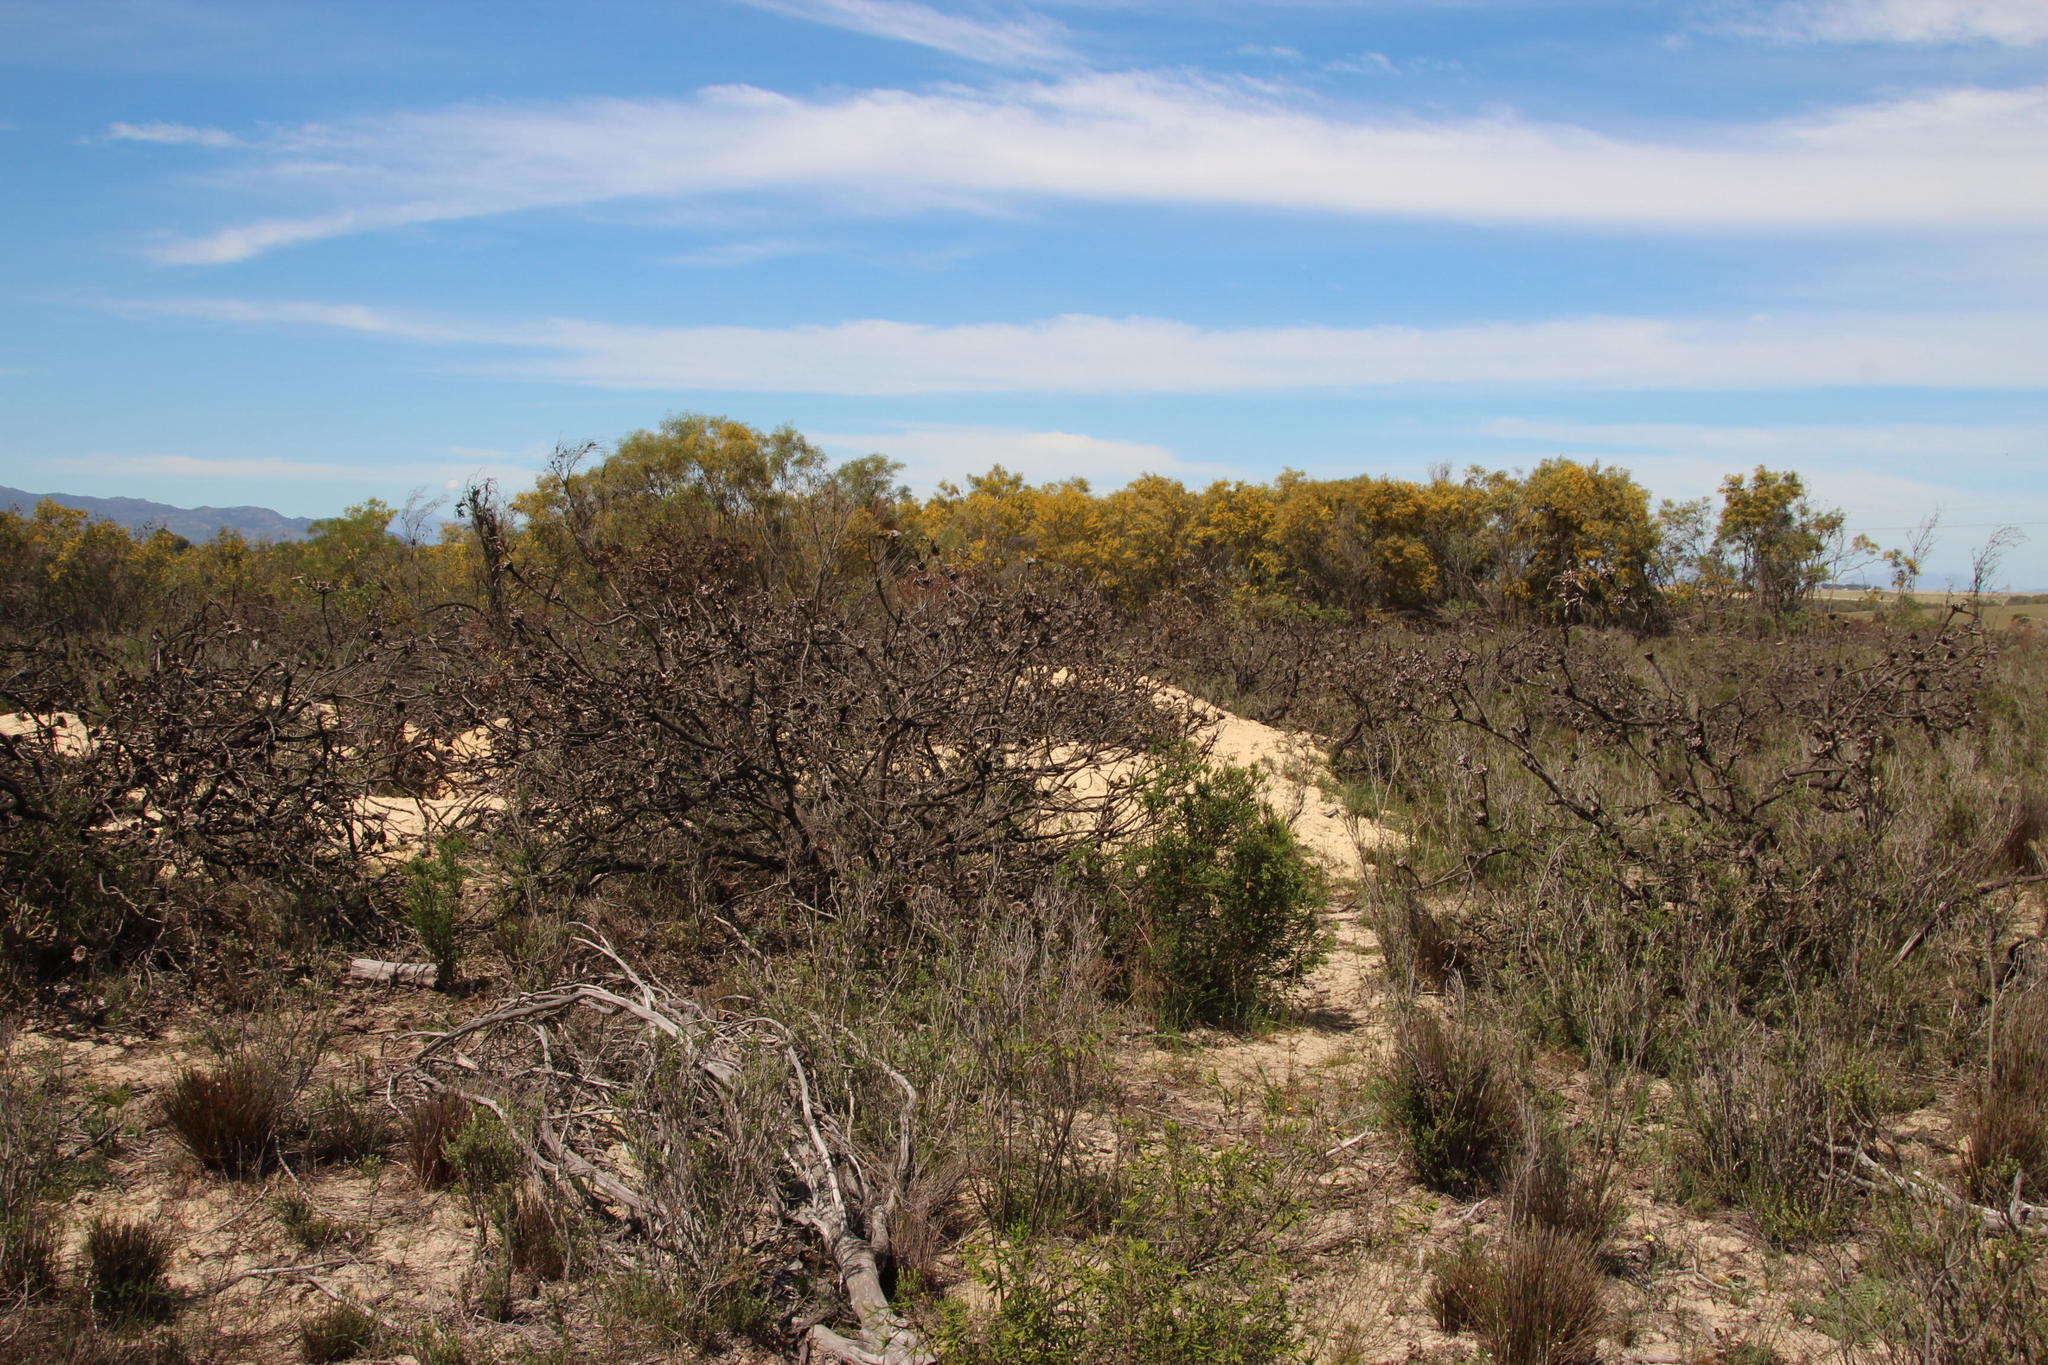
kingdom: Plantae
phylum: Tracheophyta
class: Magnoliopsida
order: Proteales
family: Proteaceae
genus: Protea
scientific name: Protea repens
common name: Sugarbush
